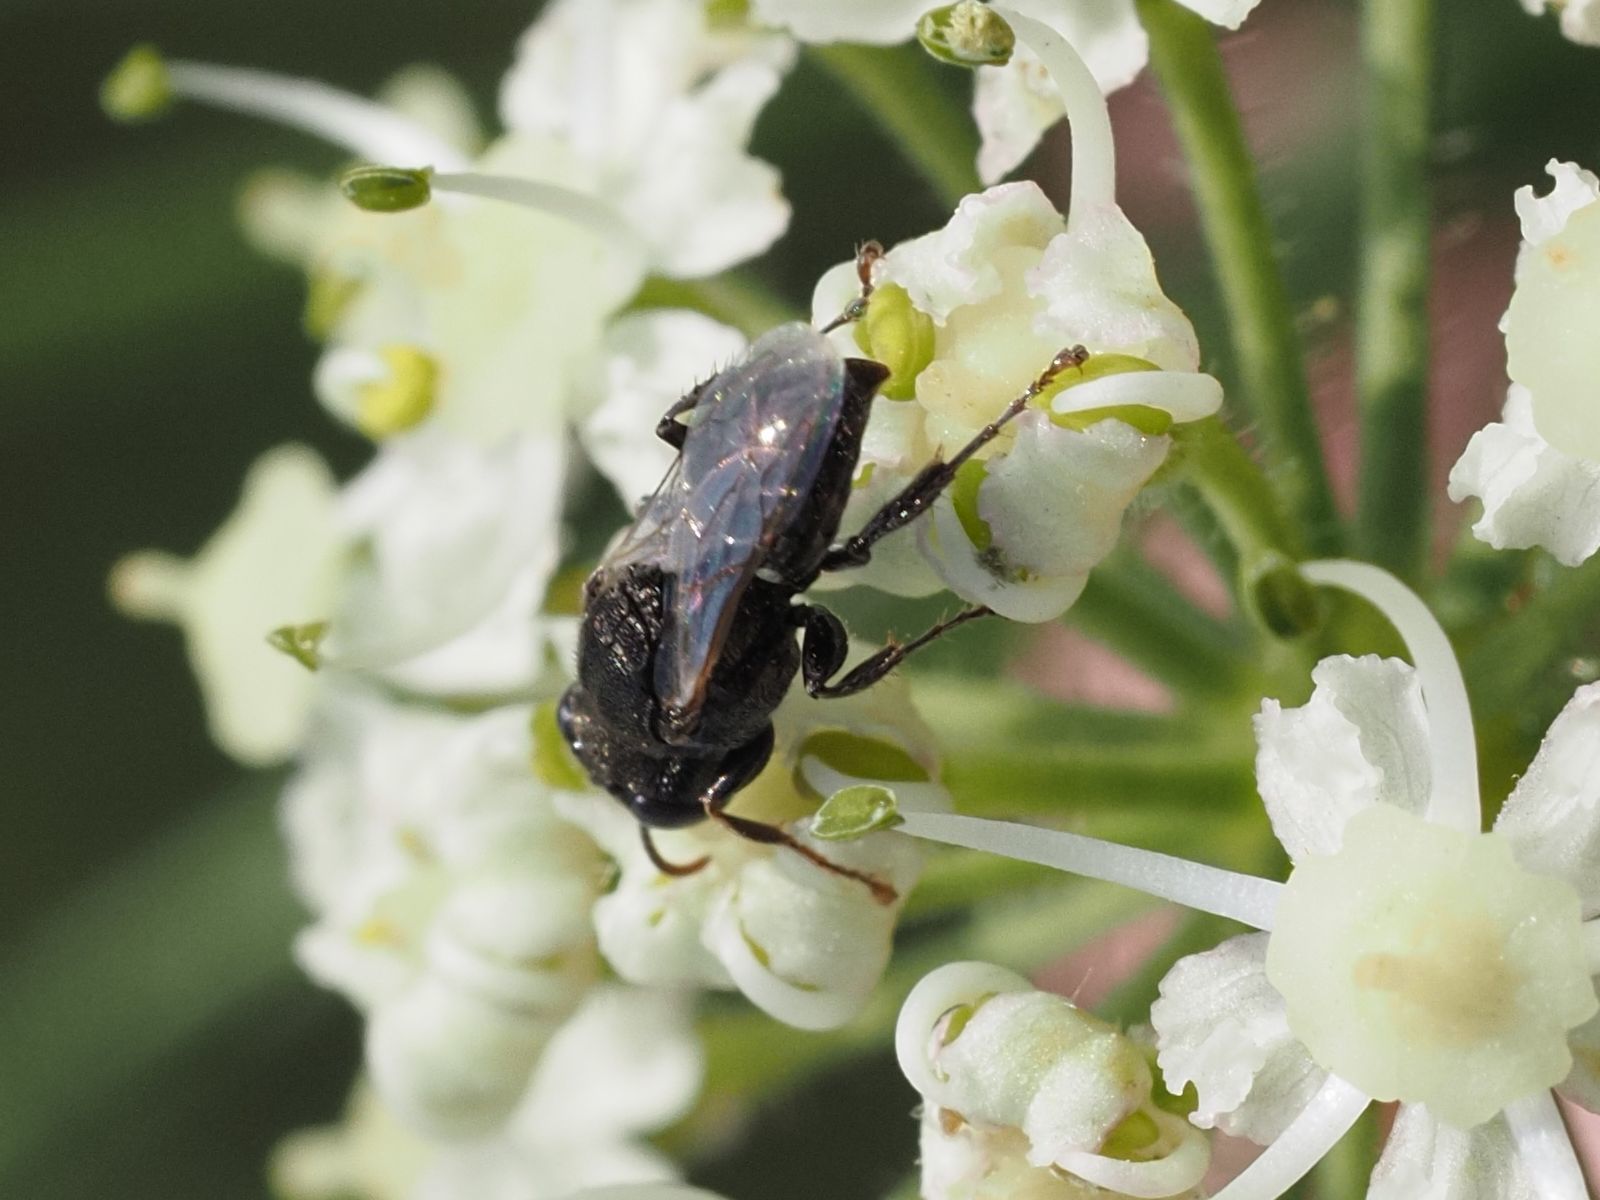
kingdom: Animalia
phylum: Arthropoda
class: Insecta
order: Hymenoptera
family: Crabronidae
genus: Oxybelus
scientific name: Oxybelus bipunctatus
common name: Square-headed wasp
